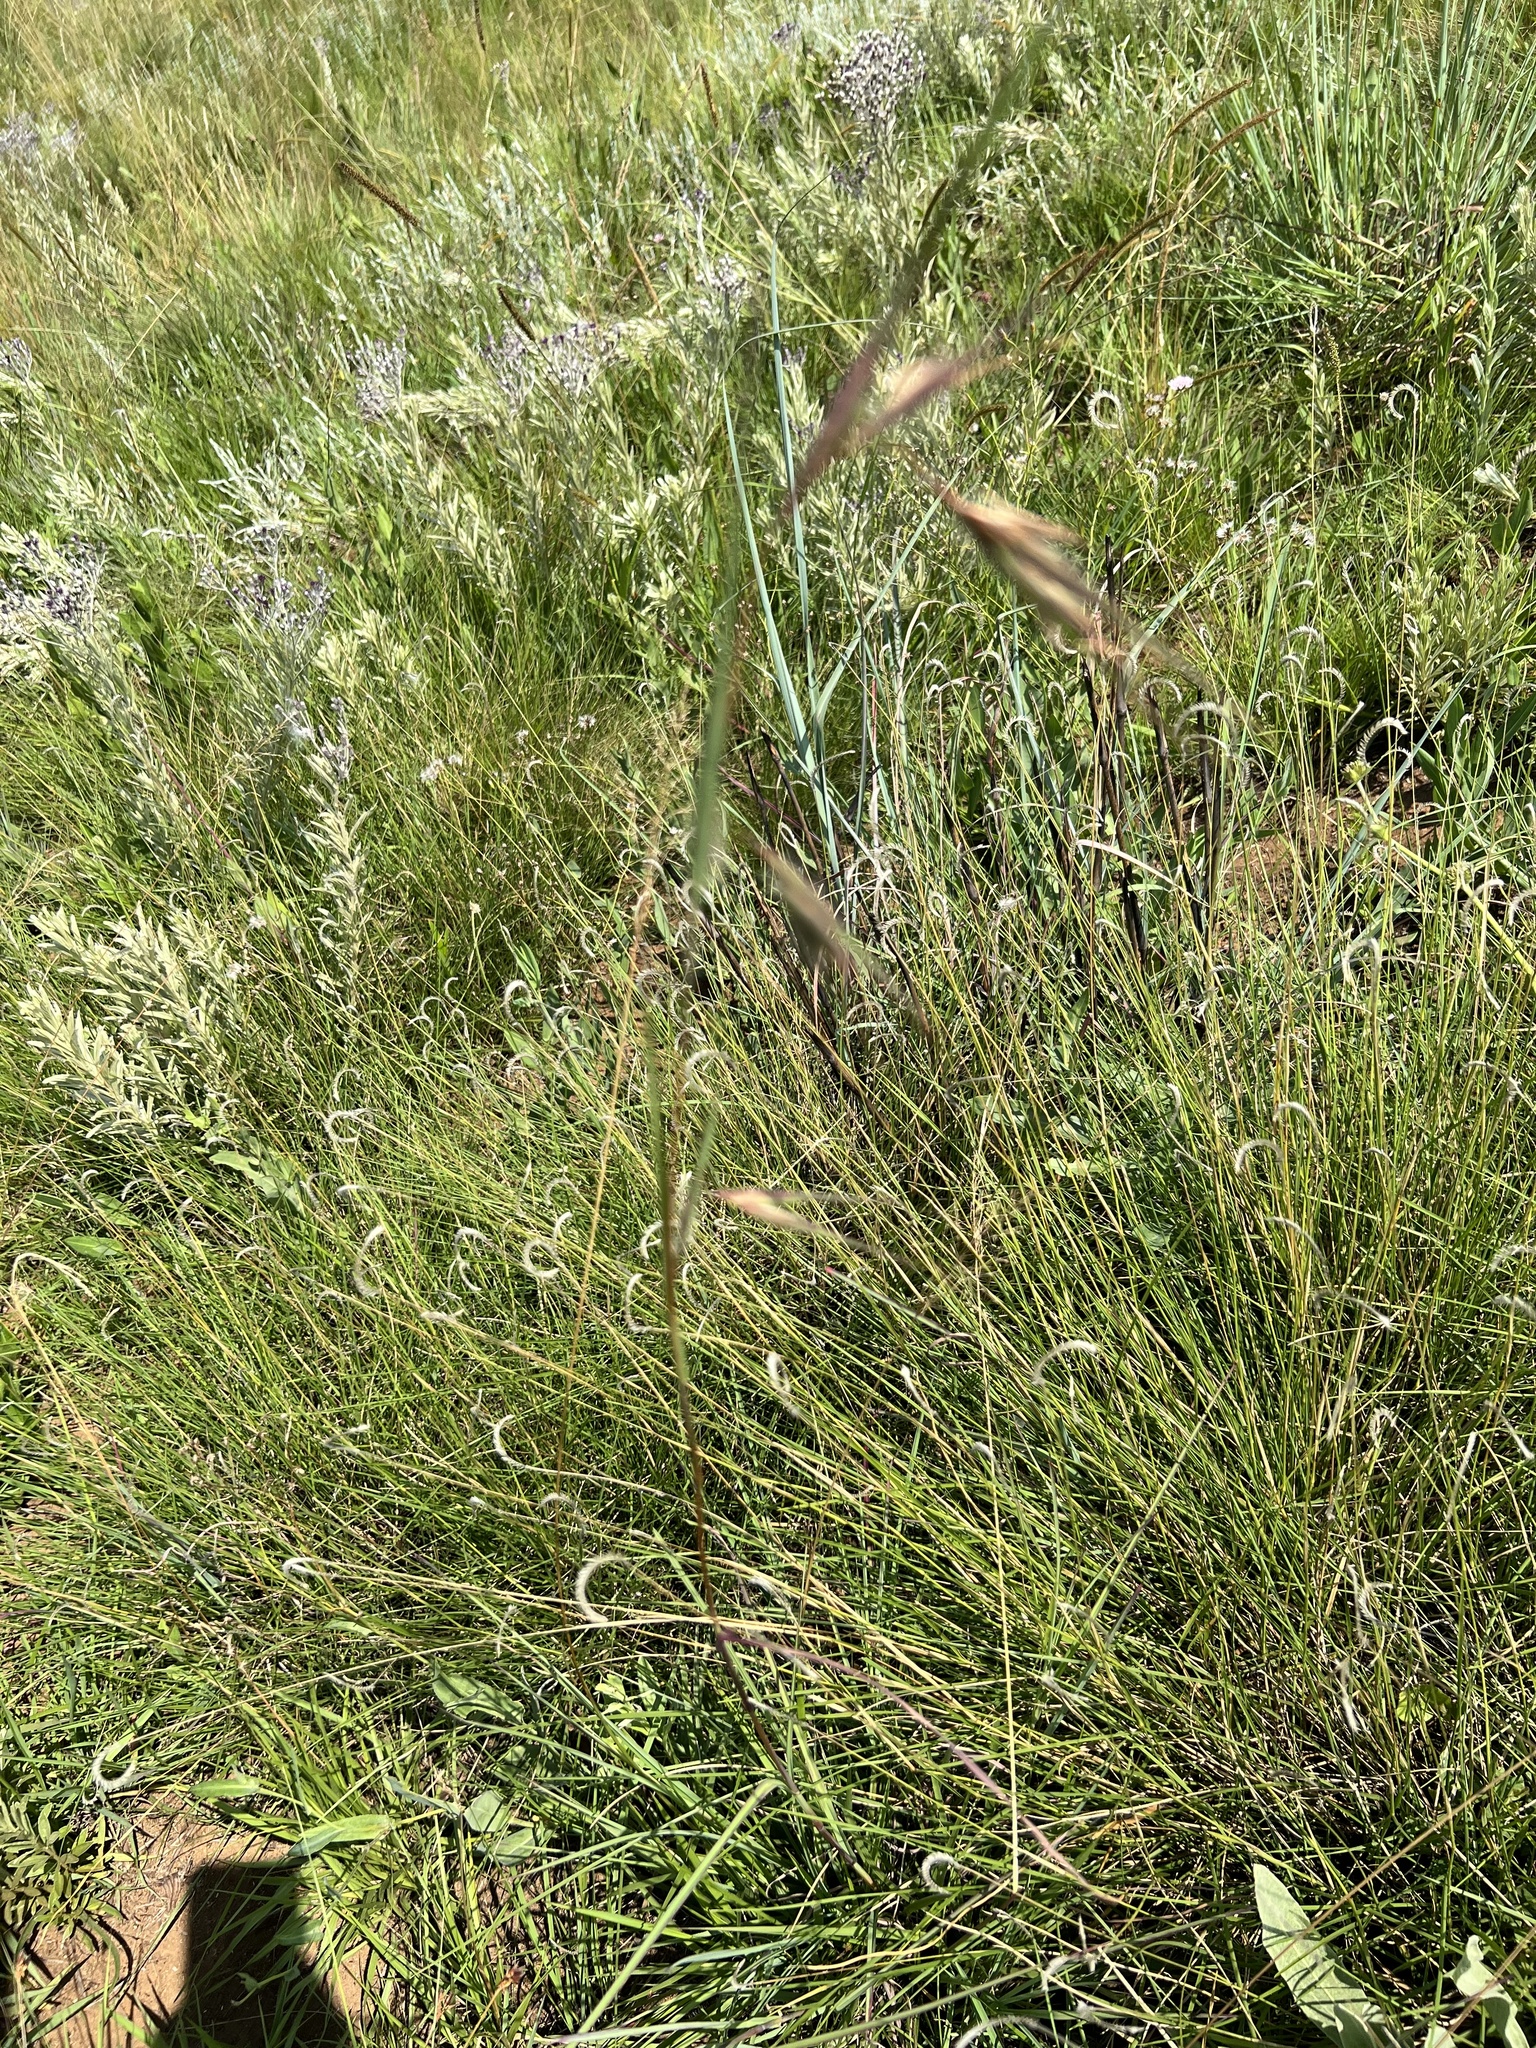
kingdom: Plantae
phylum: Tracheophyta
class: Liliopsida
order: Poales
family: Poaceae
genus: Themeda
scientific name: Themeda triandra
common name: Kangaroo grass
